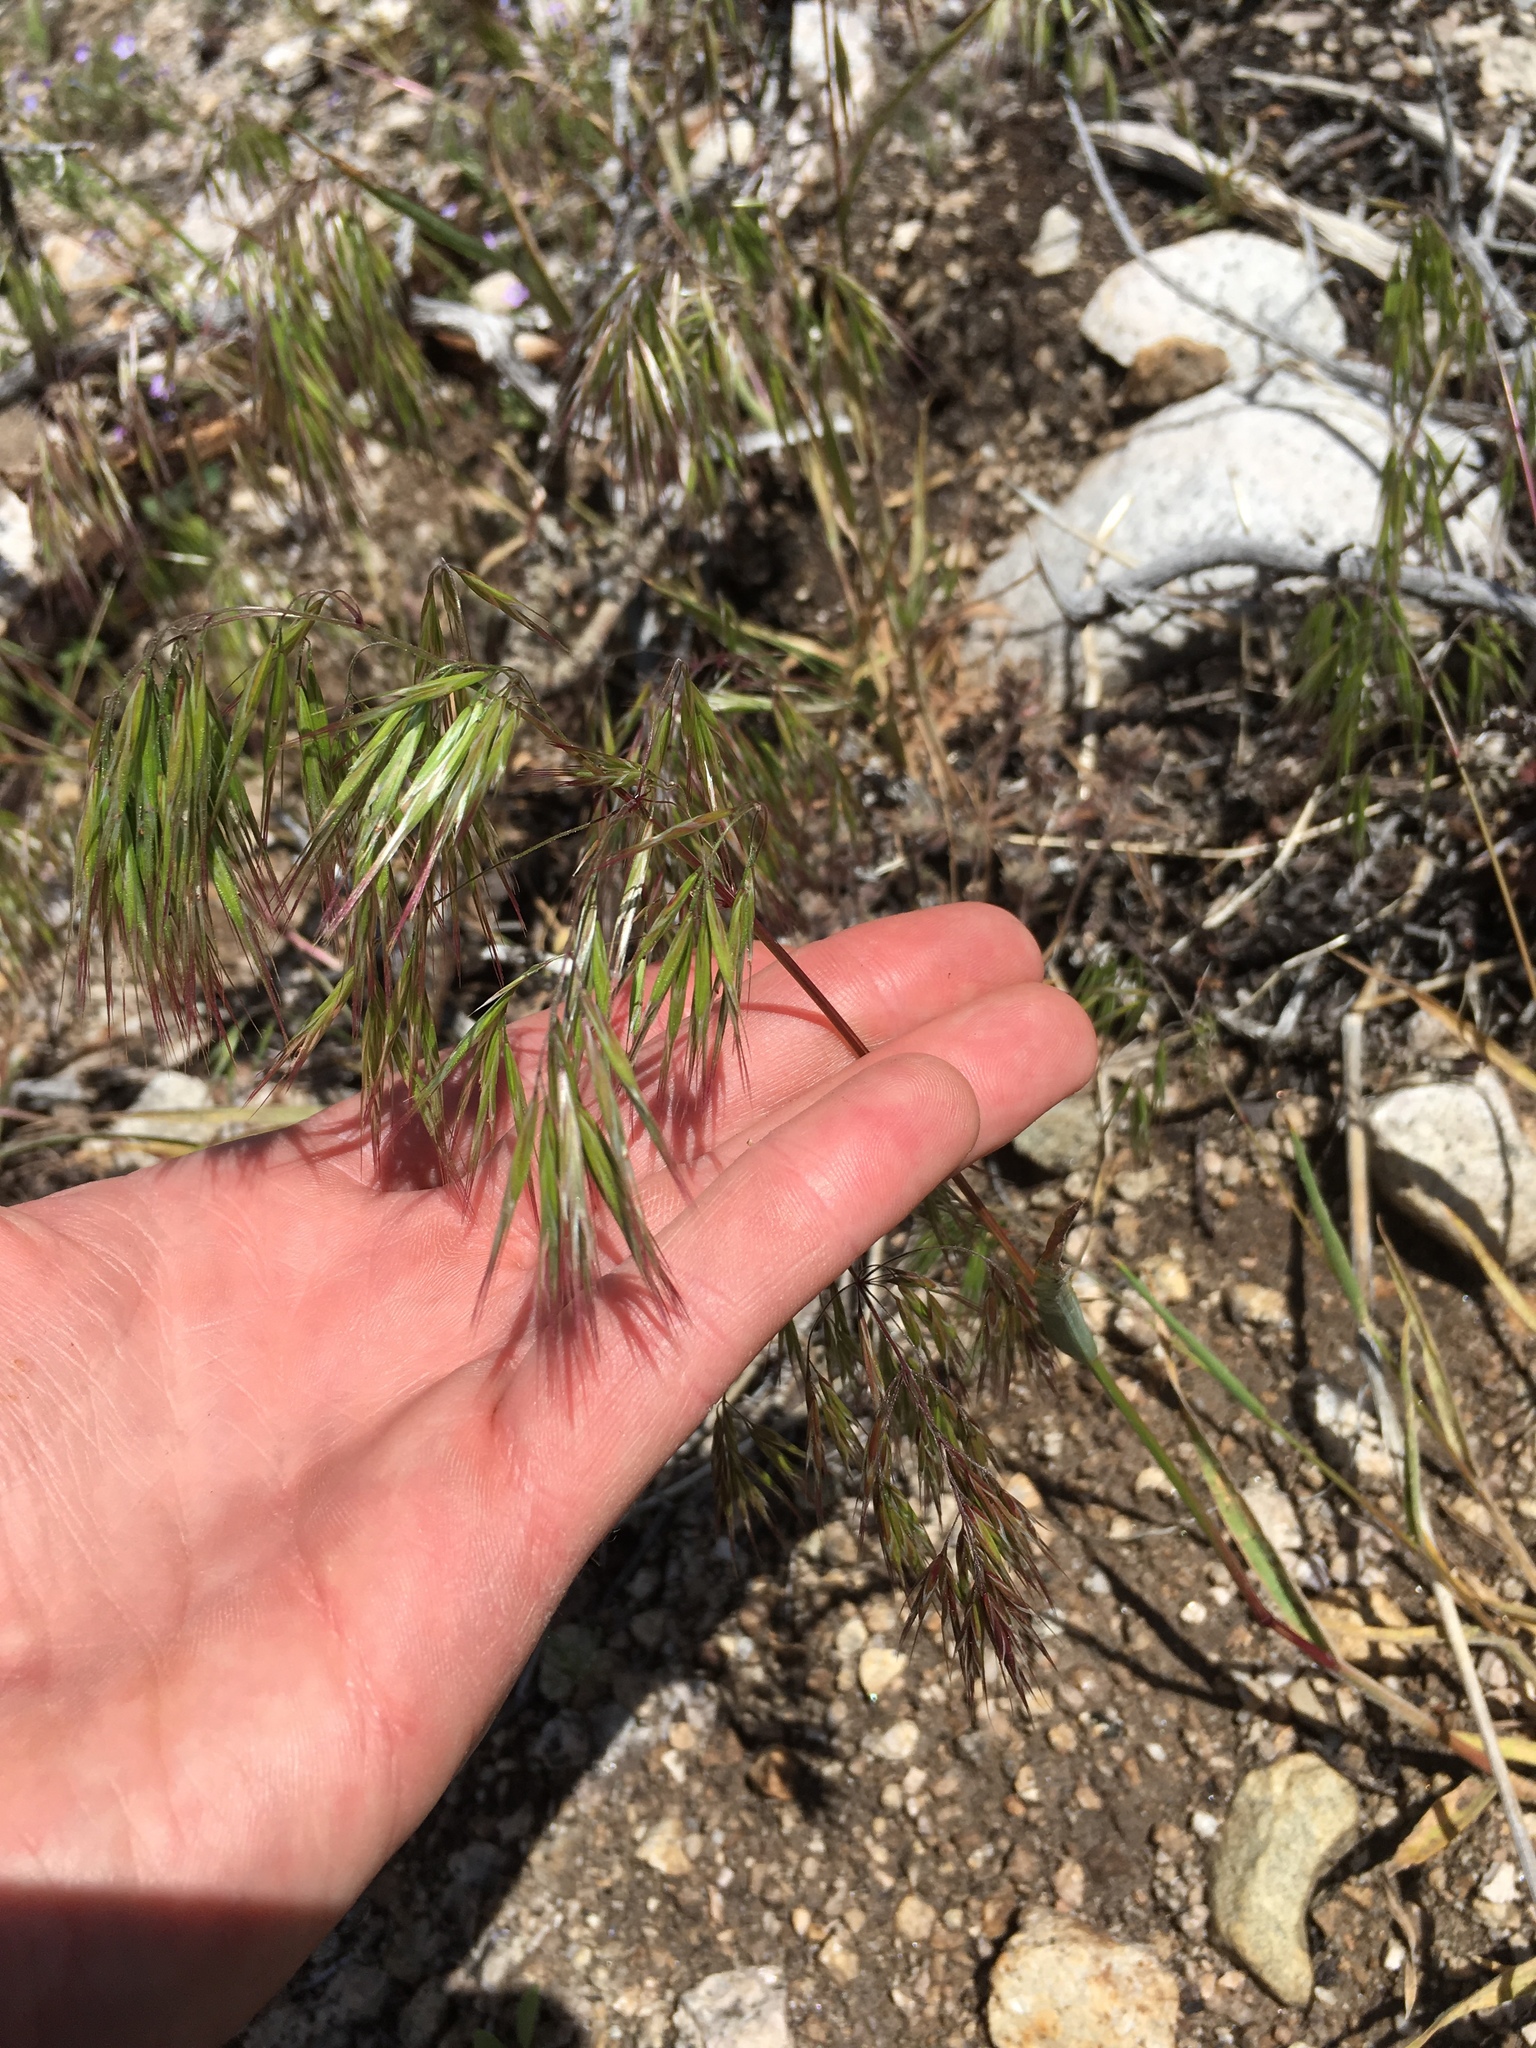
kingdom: Plantae
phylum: Tracheophyta
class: Liliopsida
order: Poales
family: Poaceae
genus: Bromus
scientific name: Bromus tectorum
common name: Cheatgrass
